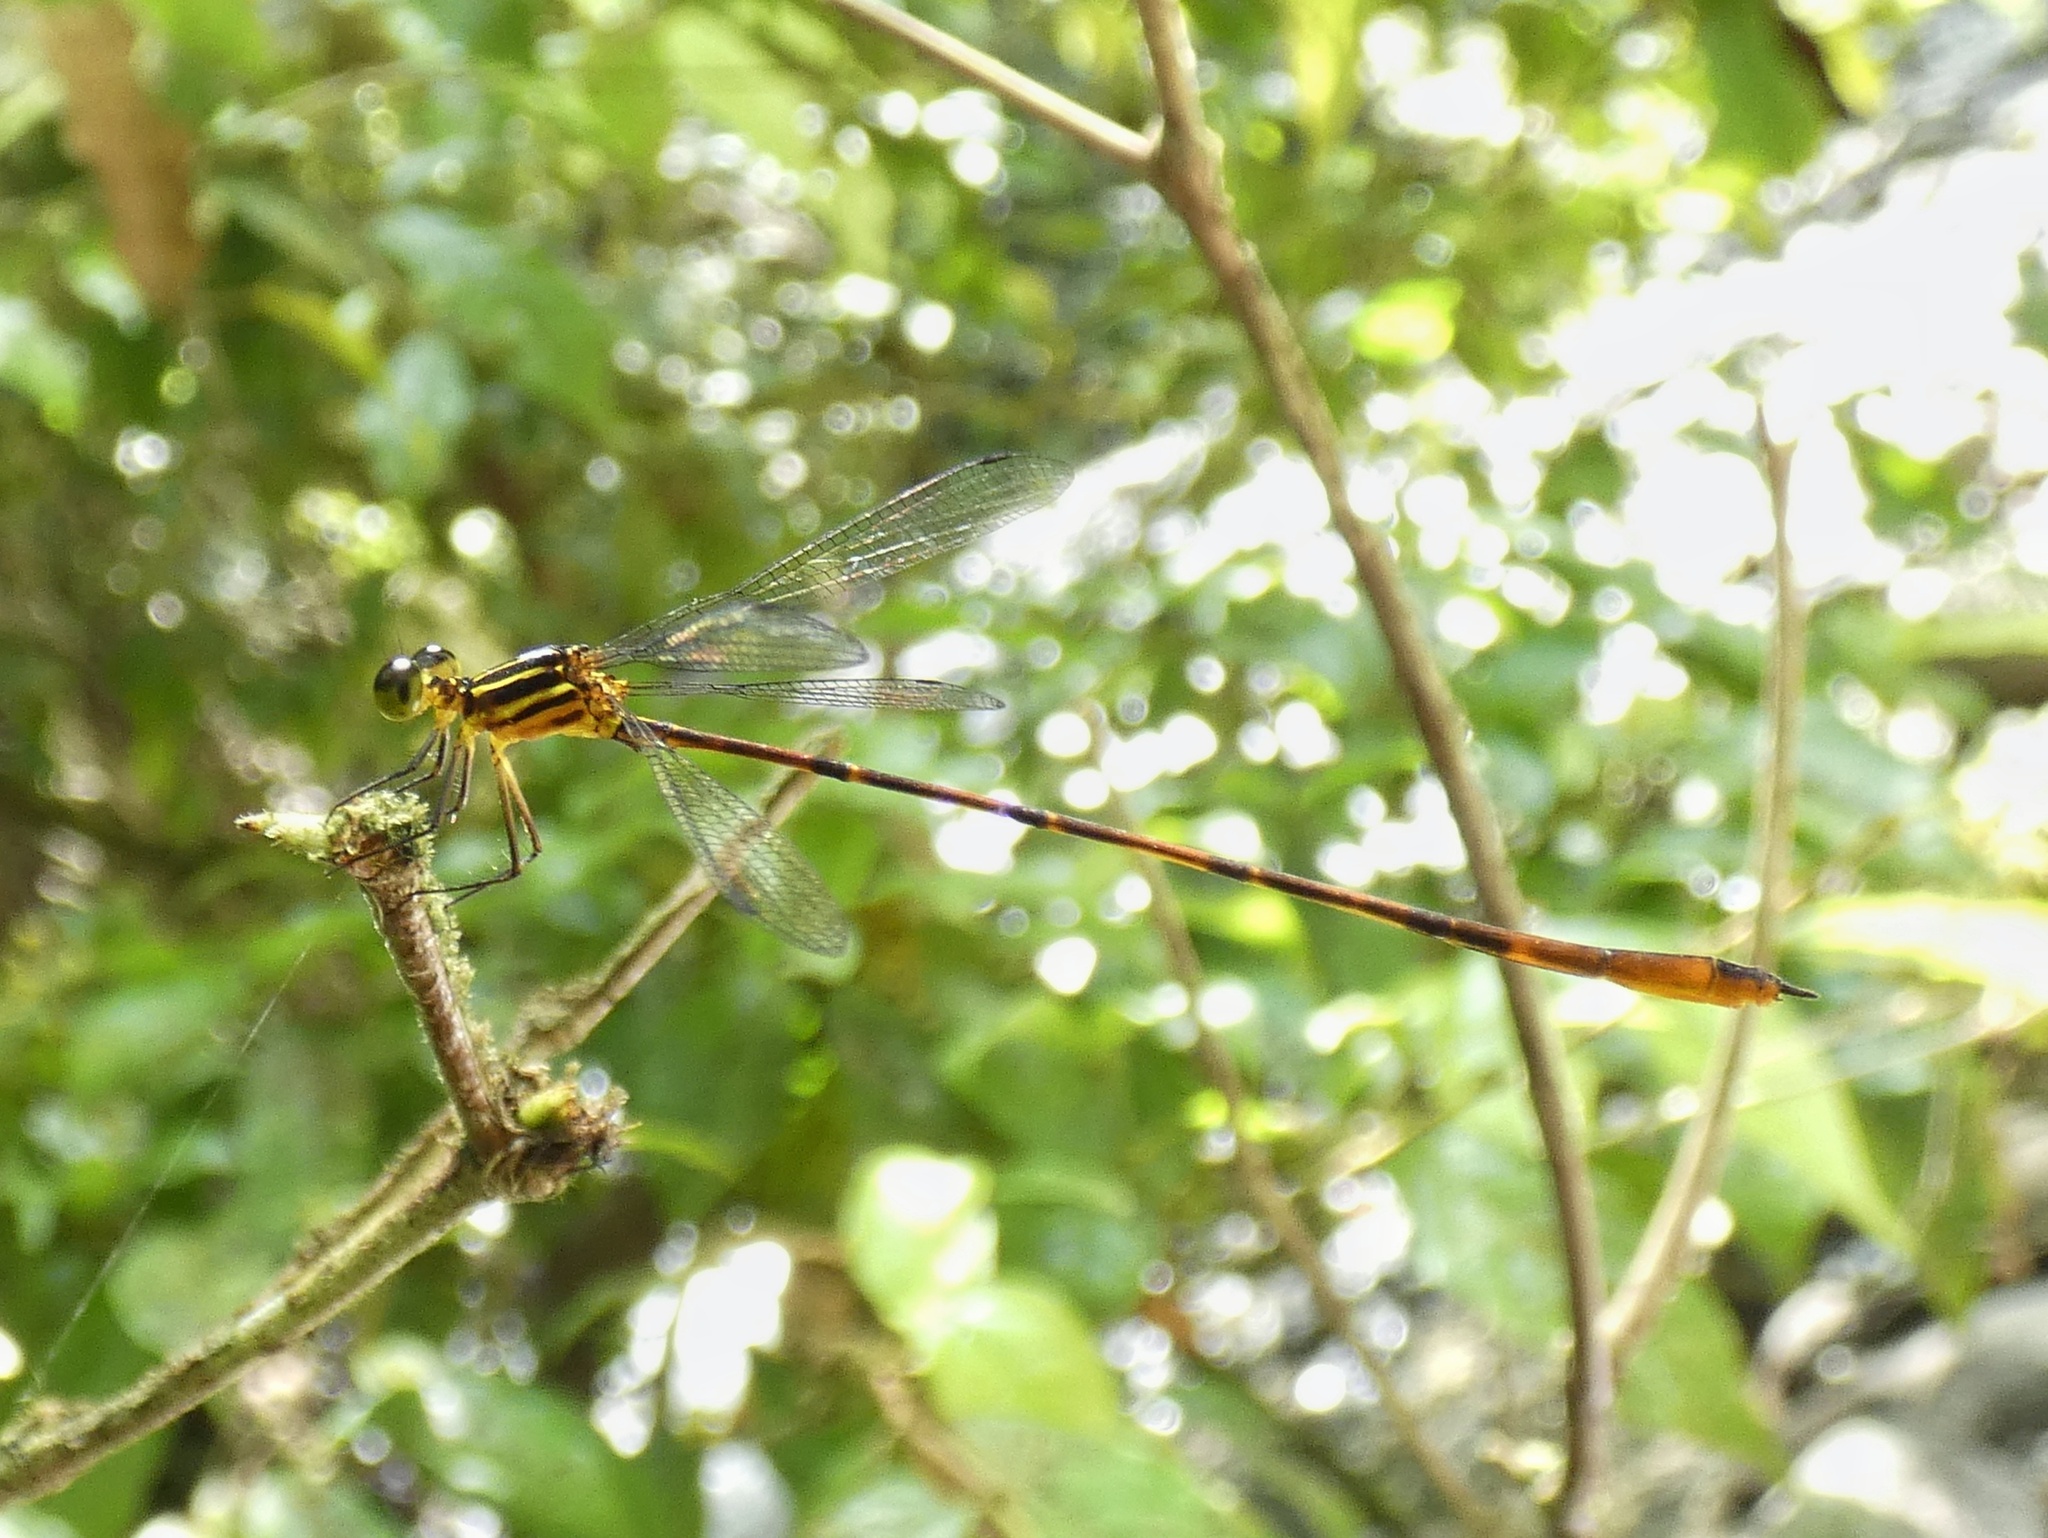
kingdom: Animalia
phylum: Arthropoda
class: Insecta
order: Odonata
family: Heteragrionidae
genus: Heteragrion
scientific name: Heteragrion mitratum
